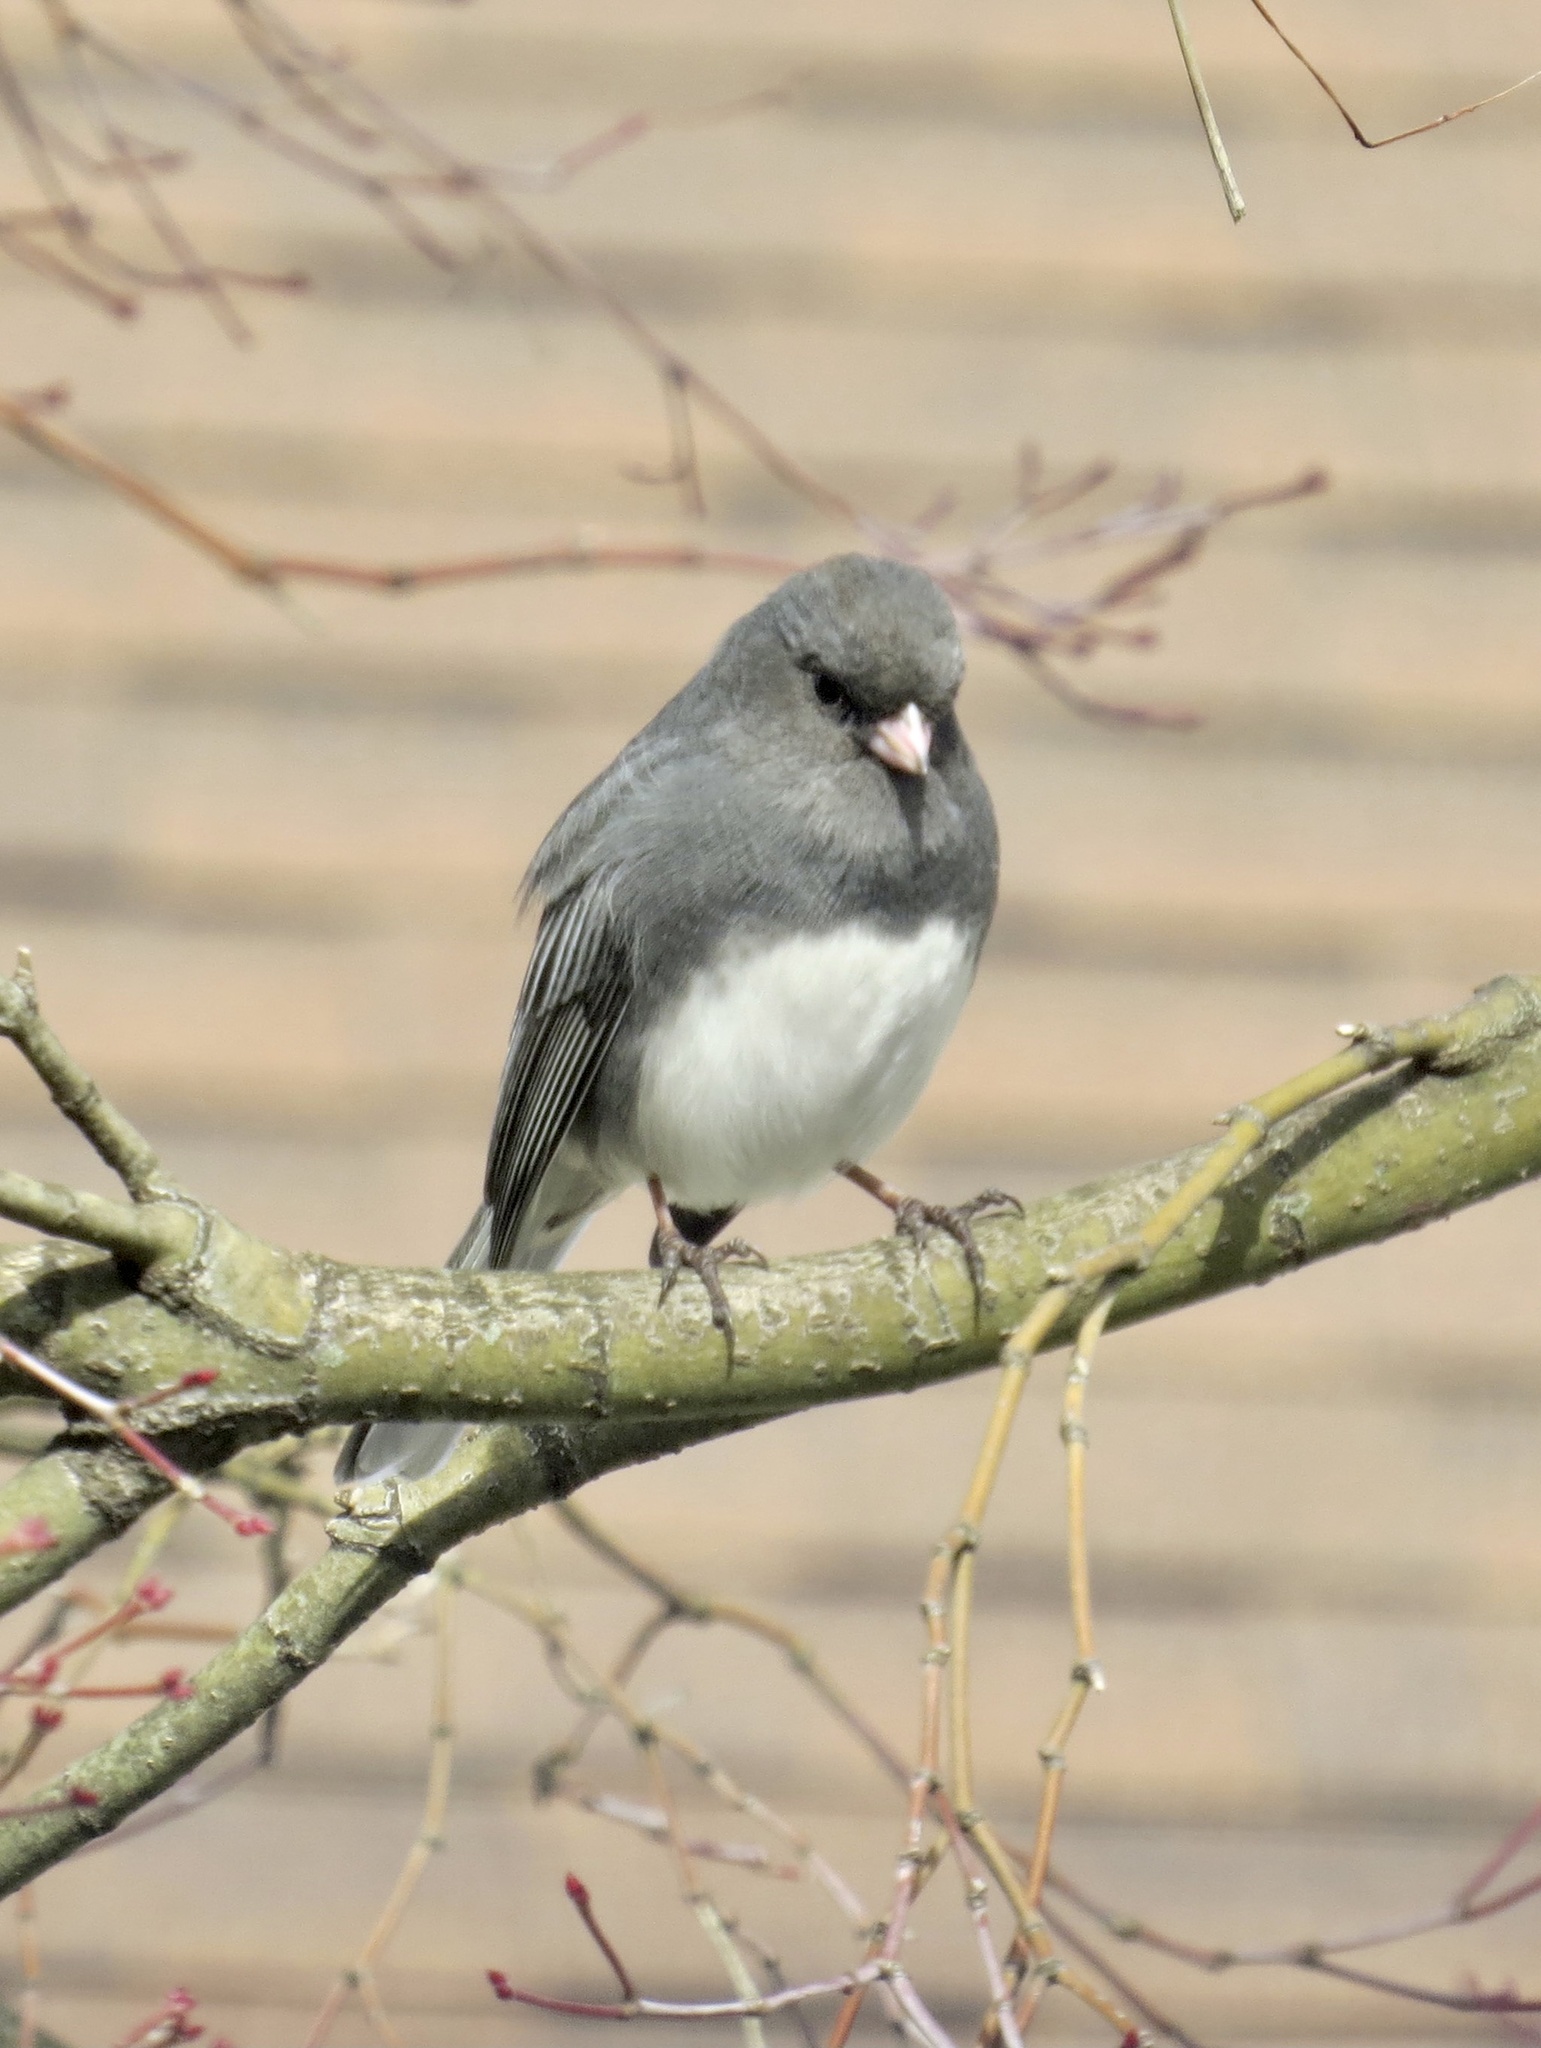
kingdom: Animalia
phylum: Chordata
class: Aves
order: Passeriformes
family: Passerellidae
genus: Junco
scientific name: Junco hyemalis
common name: Dark-eyed junco
